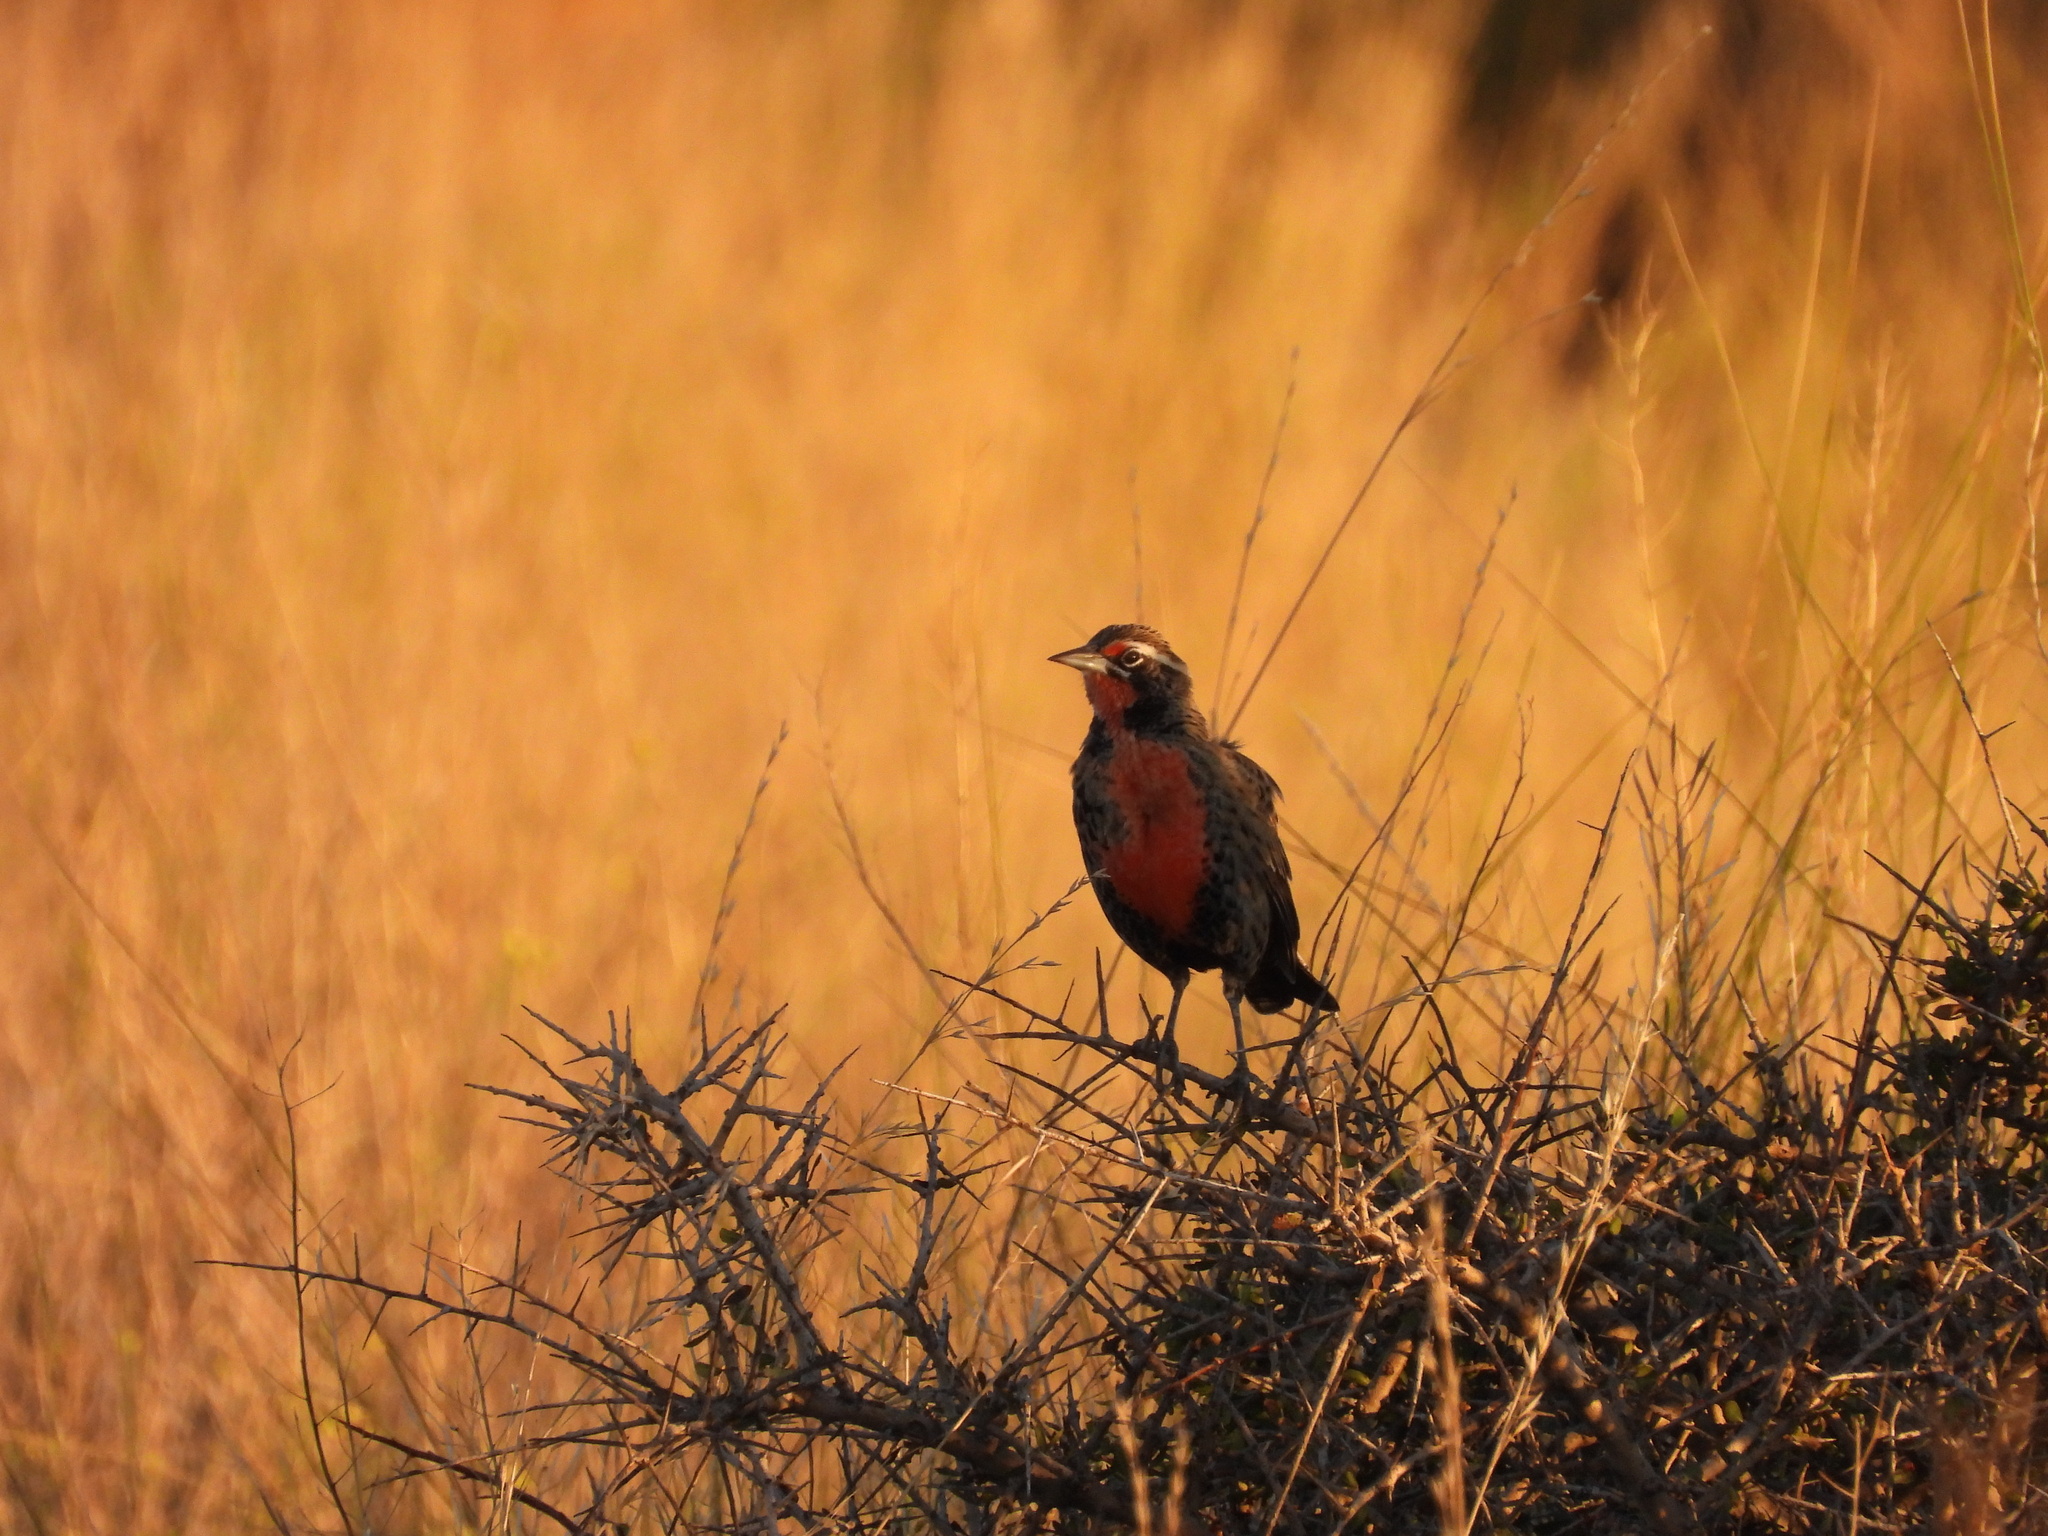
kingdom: Animalia
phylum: Chordata
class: Aves
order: Passeriformes
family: Icteridae
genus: Sturnella
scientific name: Sturnella loyca
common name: Long-tailed meadowlark
